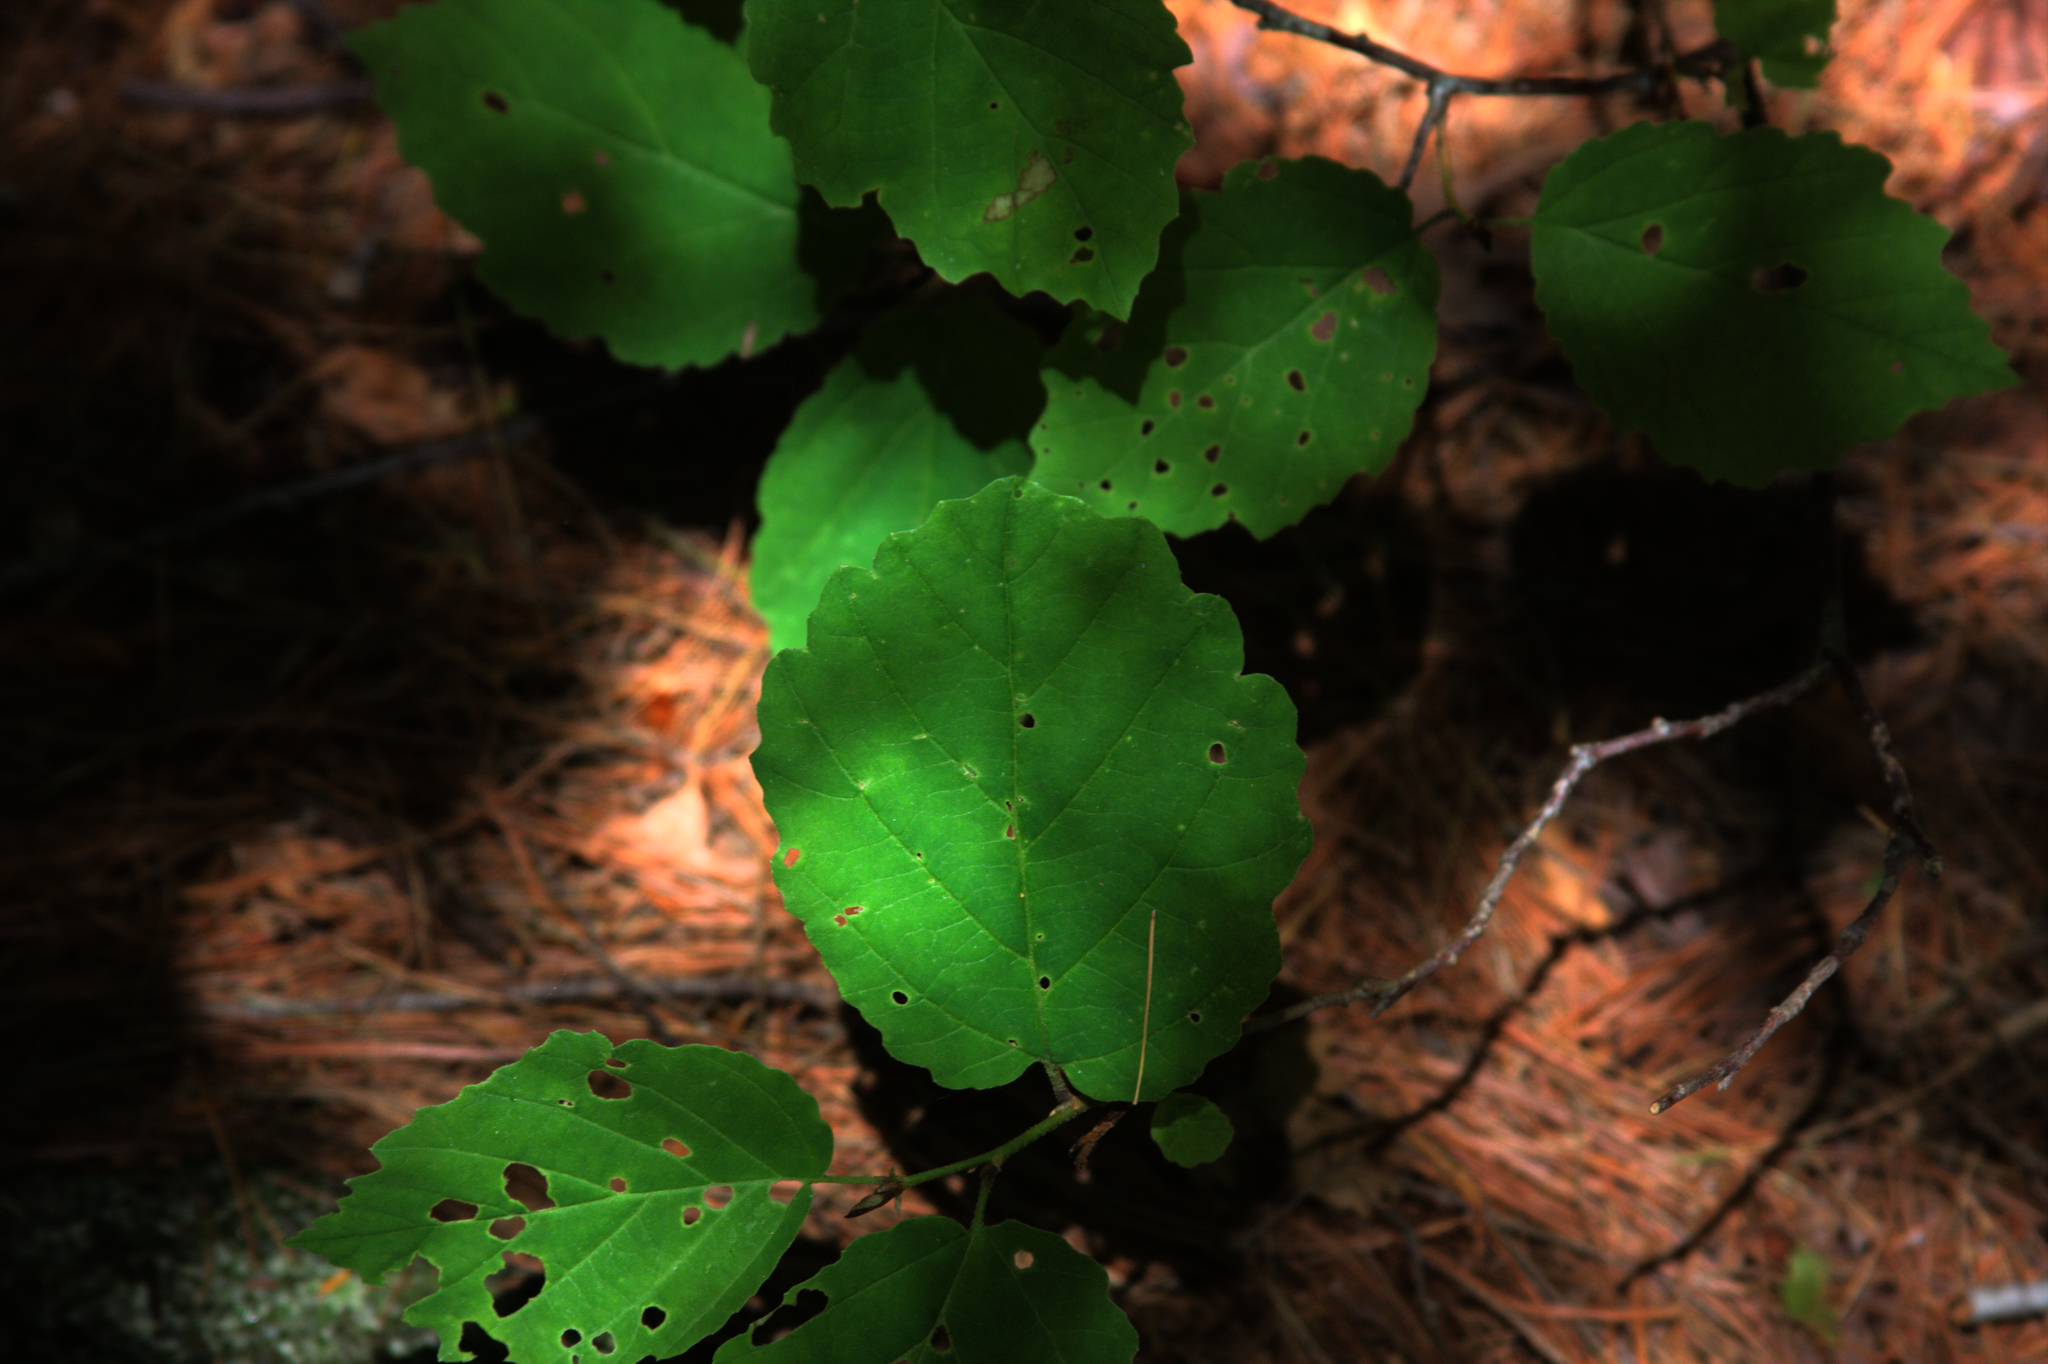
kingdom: Plantae
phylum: Tracheophyta
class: Magnoliopsida
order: Saxifragales
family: Hamamelidaceae
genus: Hamamelis
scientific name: Hamamelis virginiana
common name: Witch-hazel
